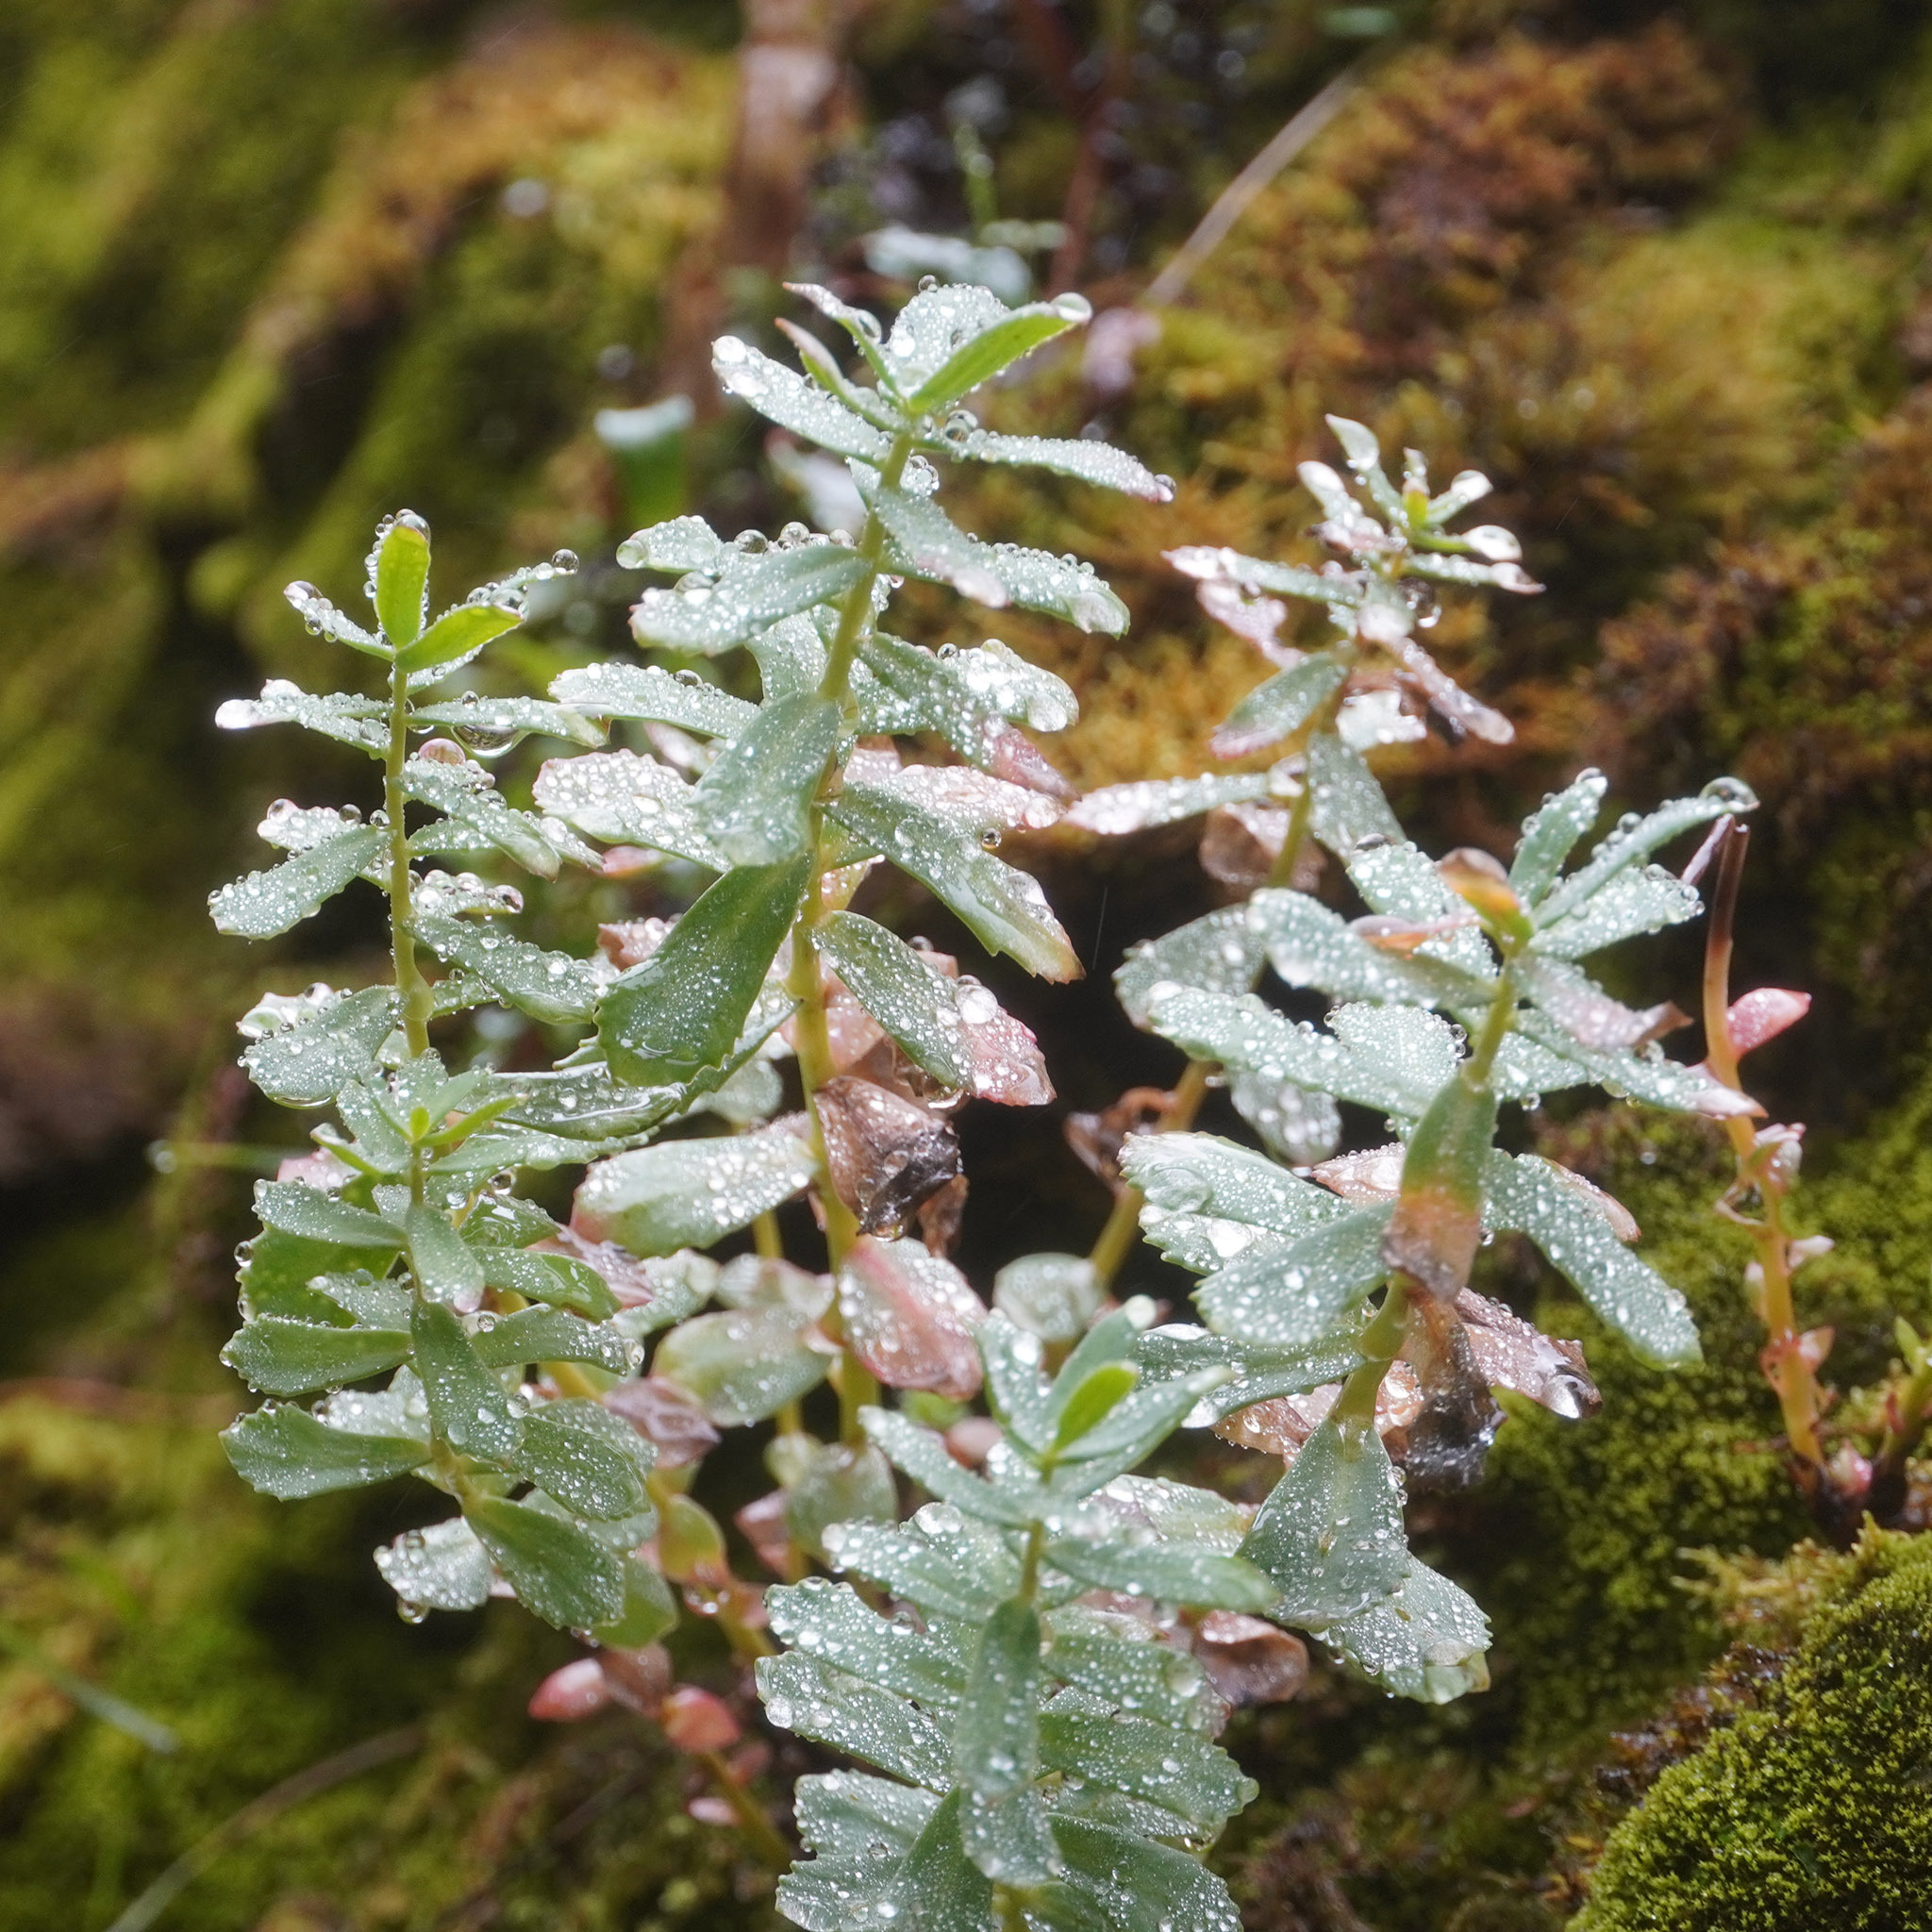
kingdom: Plantae
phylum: Tracheophyta
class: Magnoliopsida
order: Saxifragales
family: Crassulaceae
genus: Rhodiola
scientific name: Rhodiola rosea
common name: Roseroot
